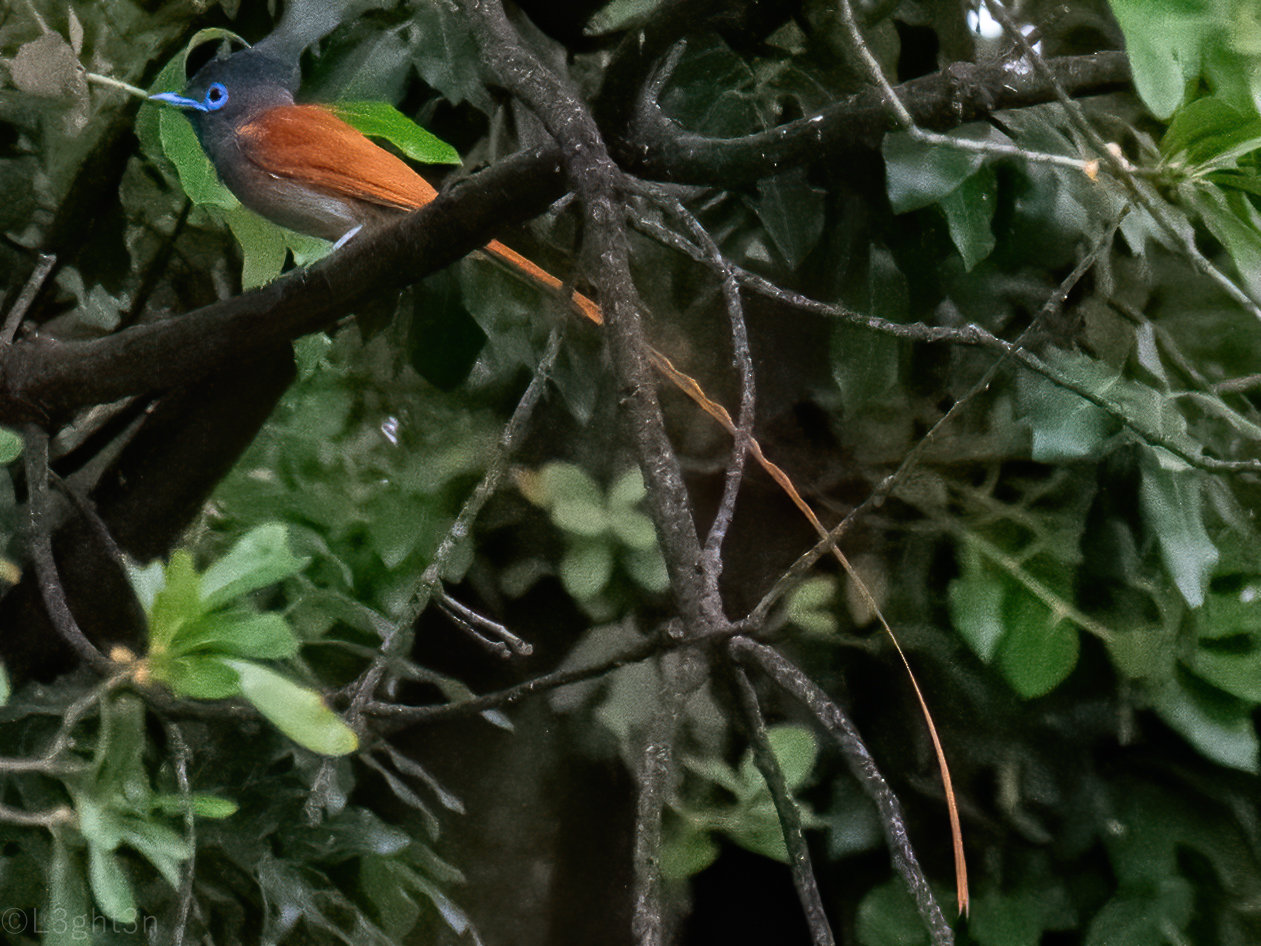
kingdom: Animalia
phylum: Chordata
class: Aves
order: Passeriformes
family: Monarchidae
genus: Terpsiphone
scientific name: Terpsiphone viridis
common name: African paradise flycatcher
